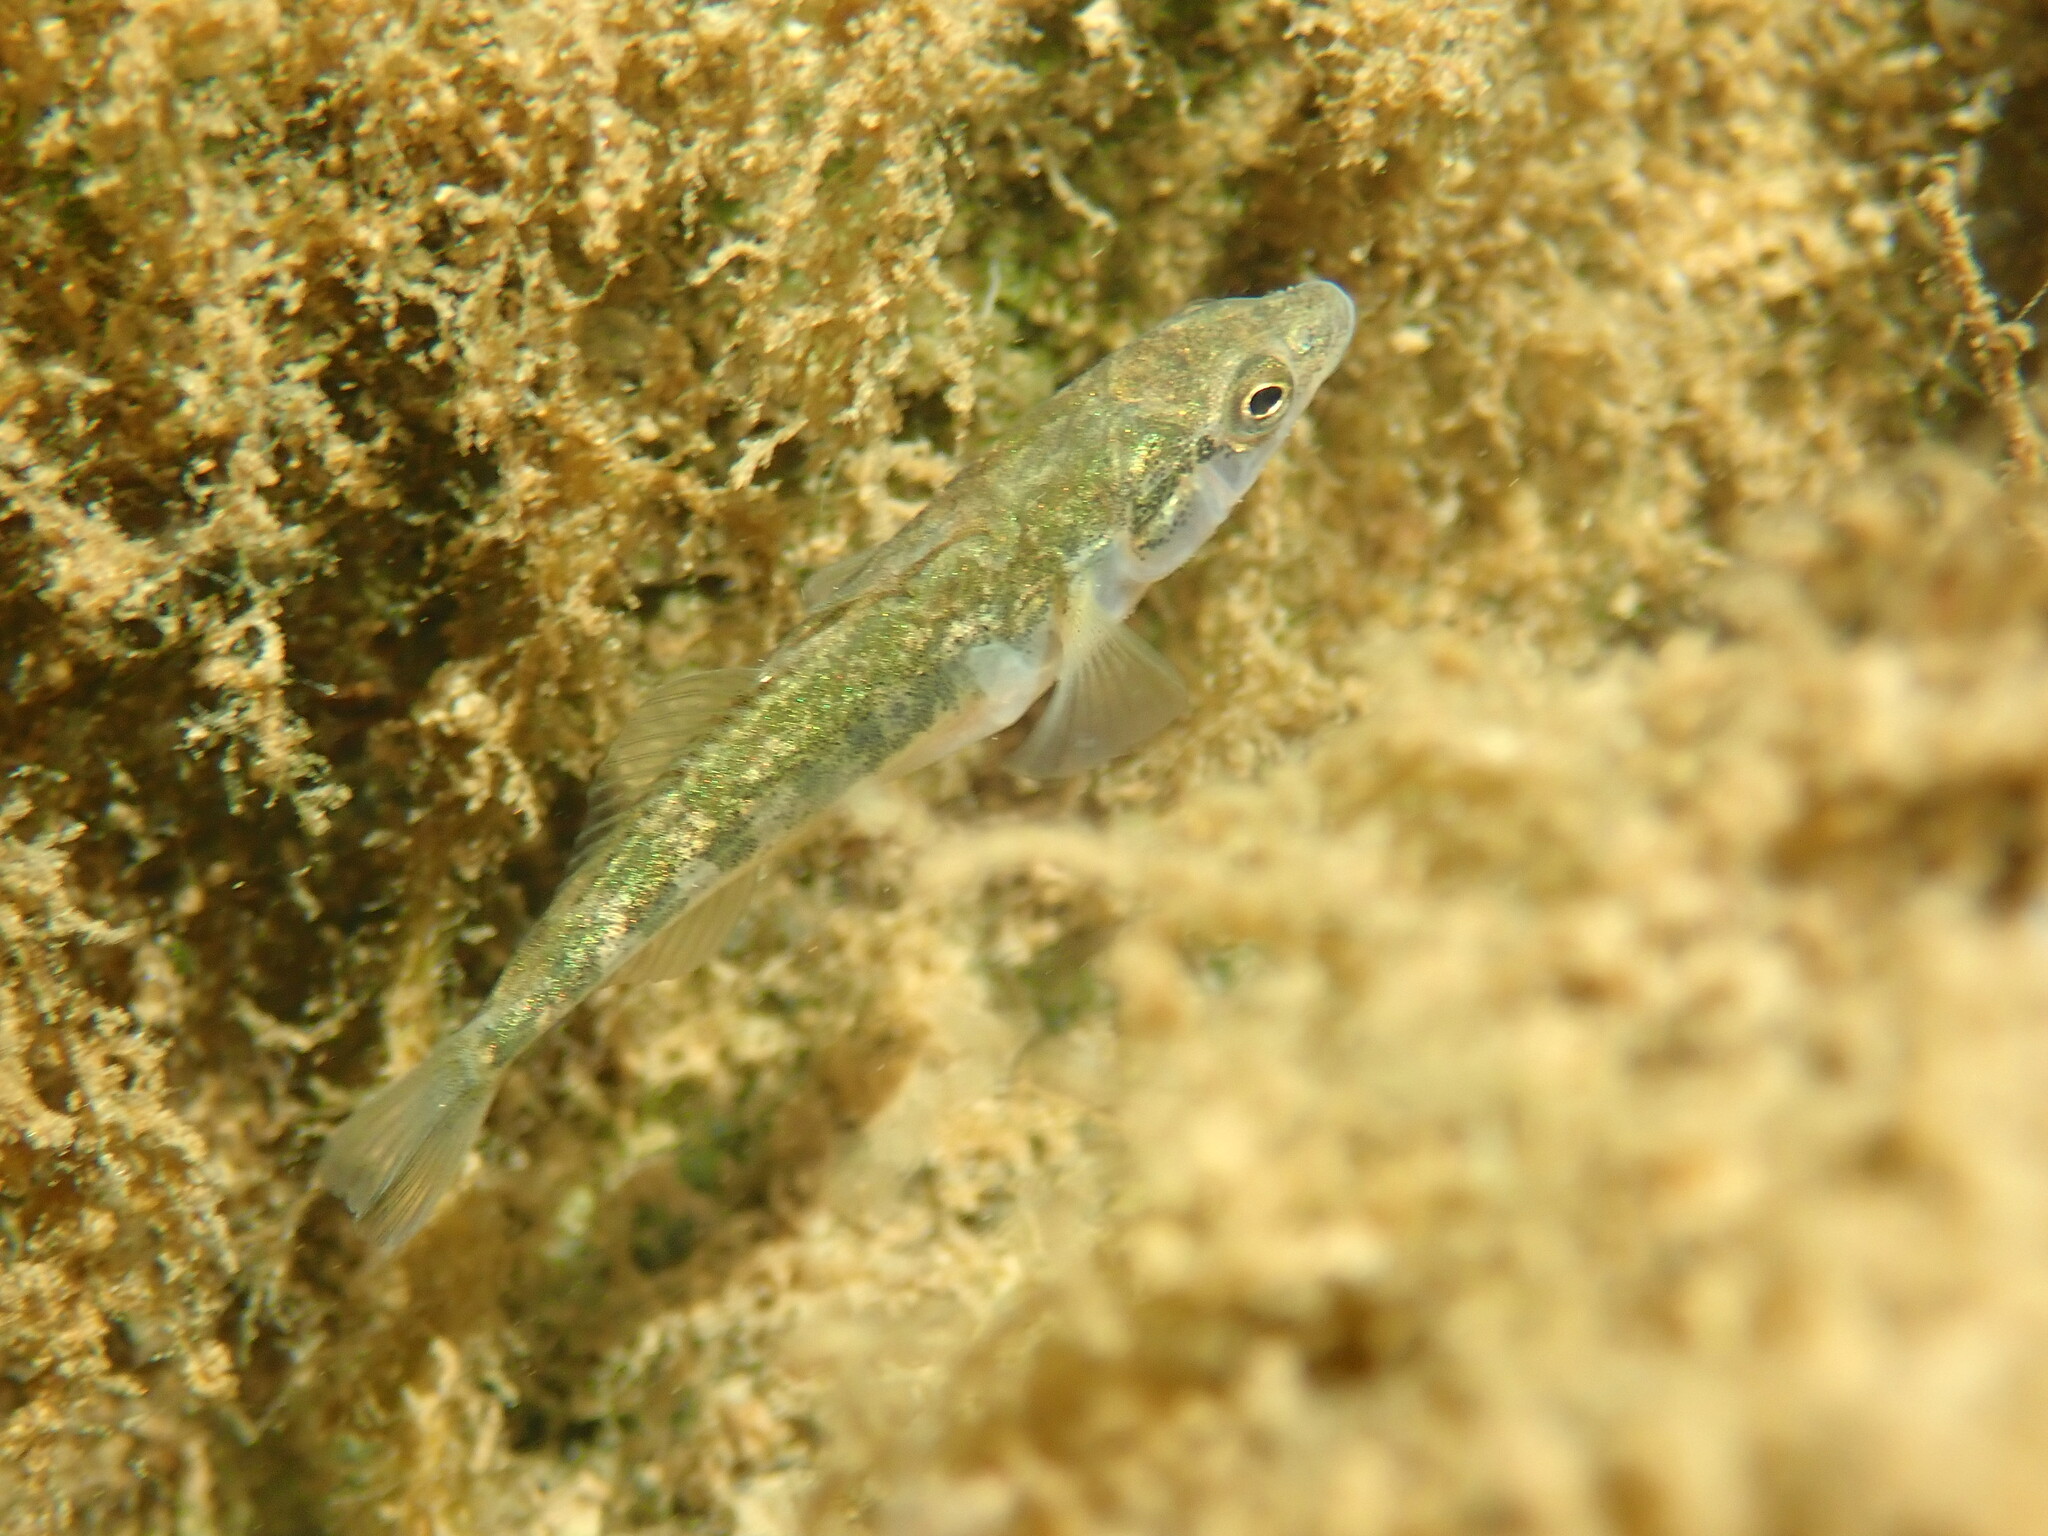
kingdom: Animalia
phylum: Chordata
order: Gasterosteiformes
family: Gasterosteidae
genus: Gasterosteus
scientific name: Gasterosteus aculeatus
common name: Three-spined stickleback
